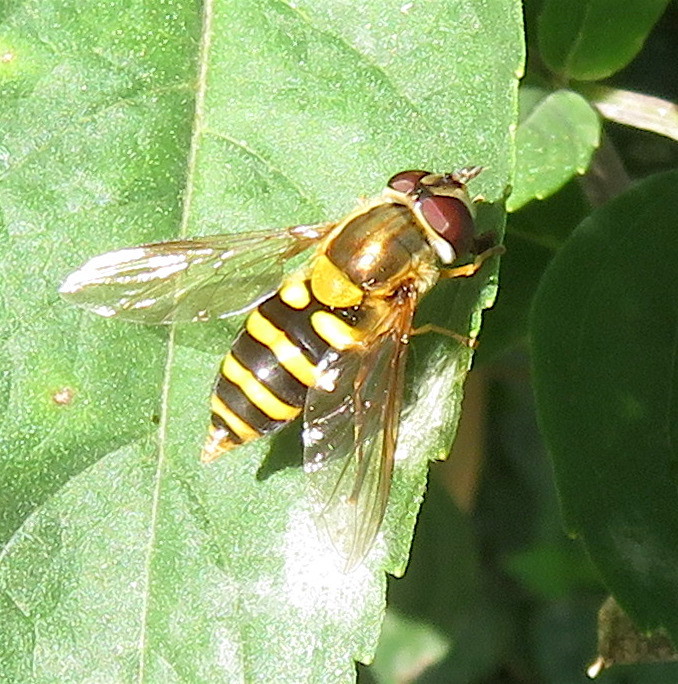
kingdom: Animalia
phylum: Arthropoda
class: Insecta
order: Diptera
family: Syrphidae
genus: Syrphus
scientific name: Syrphus
